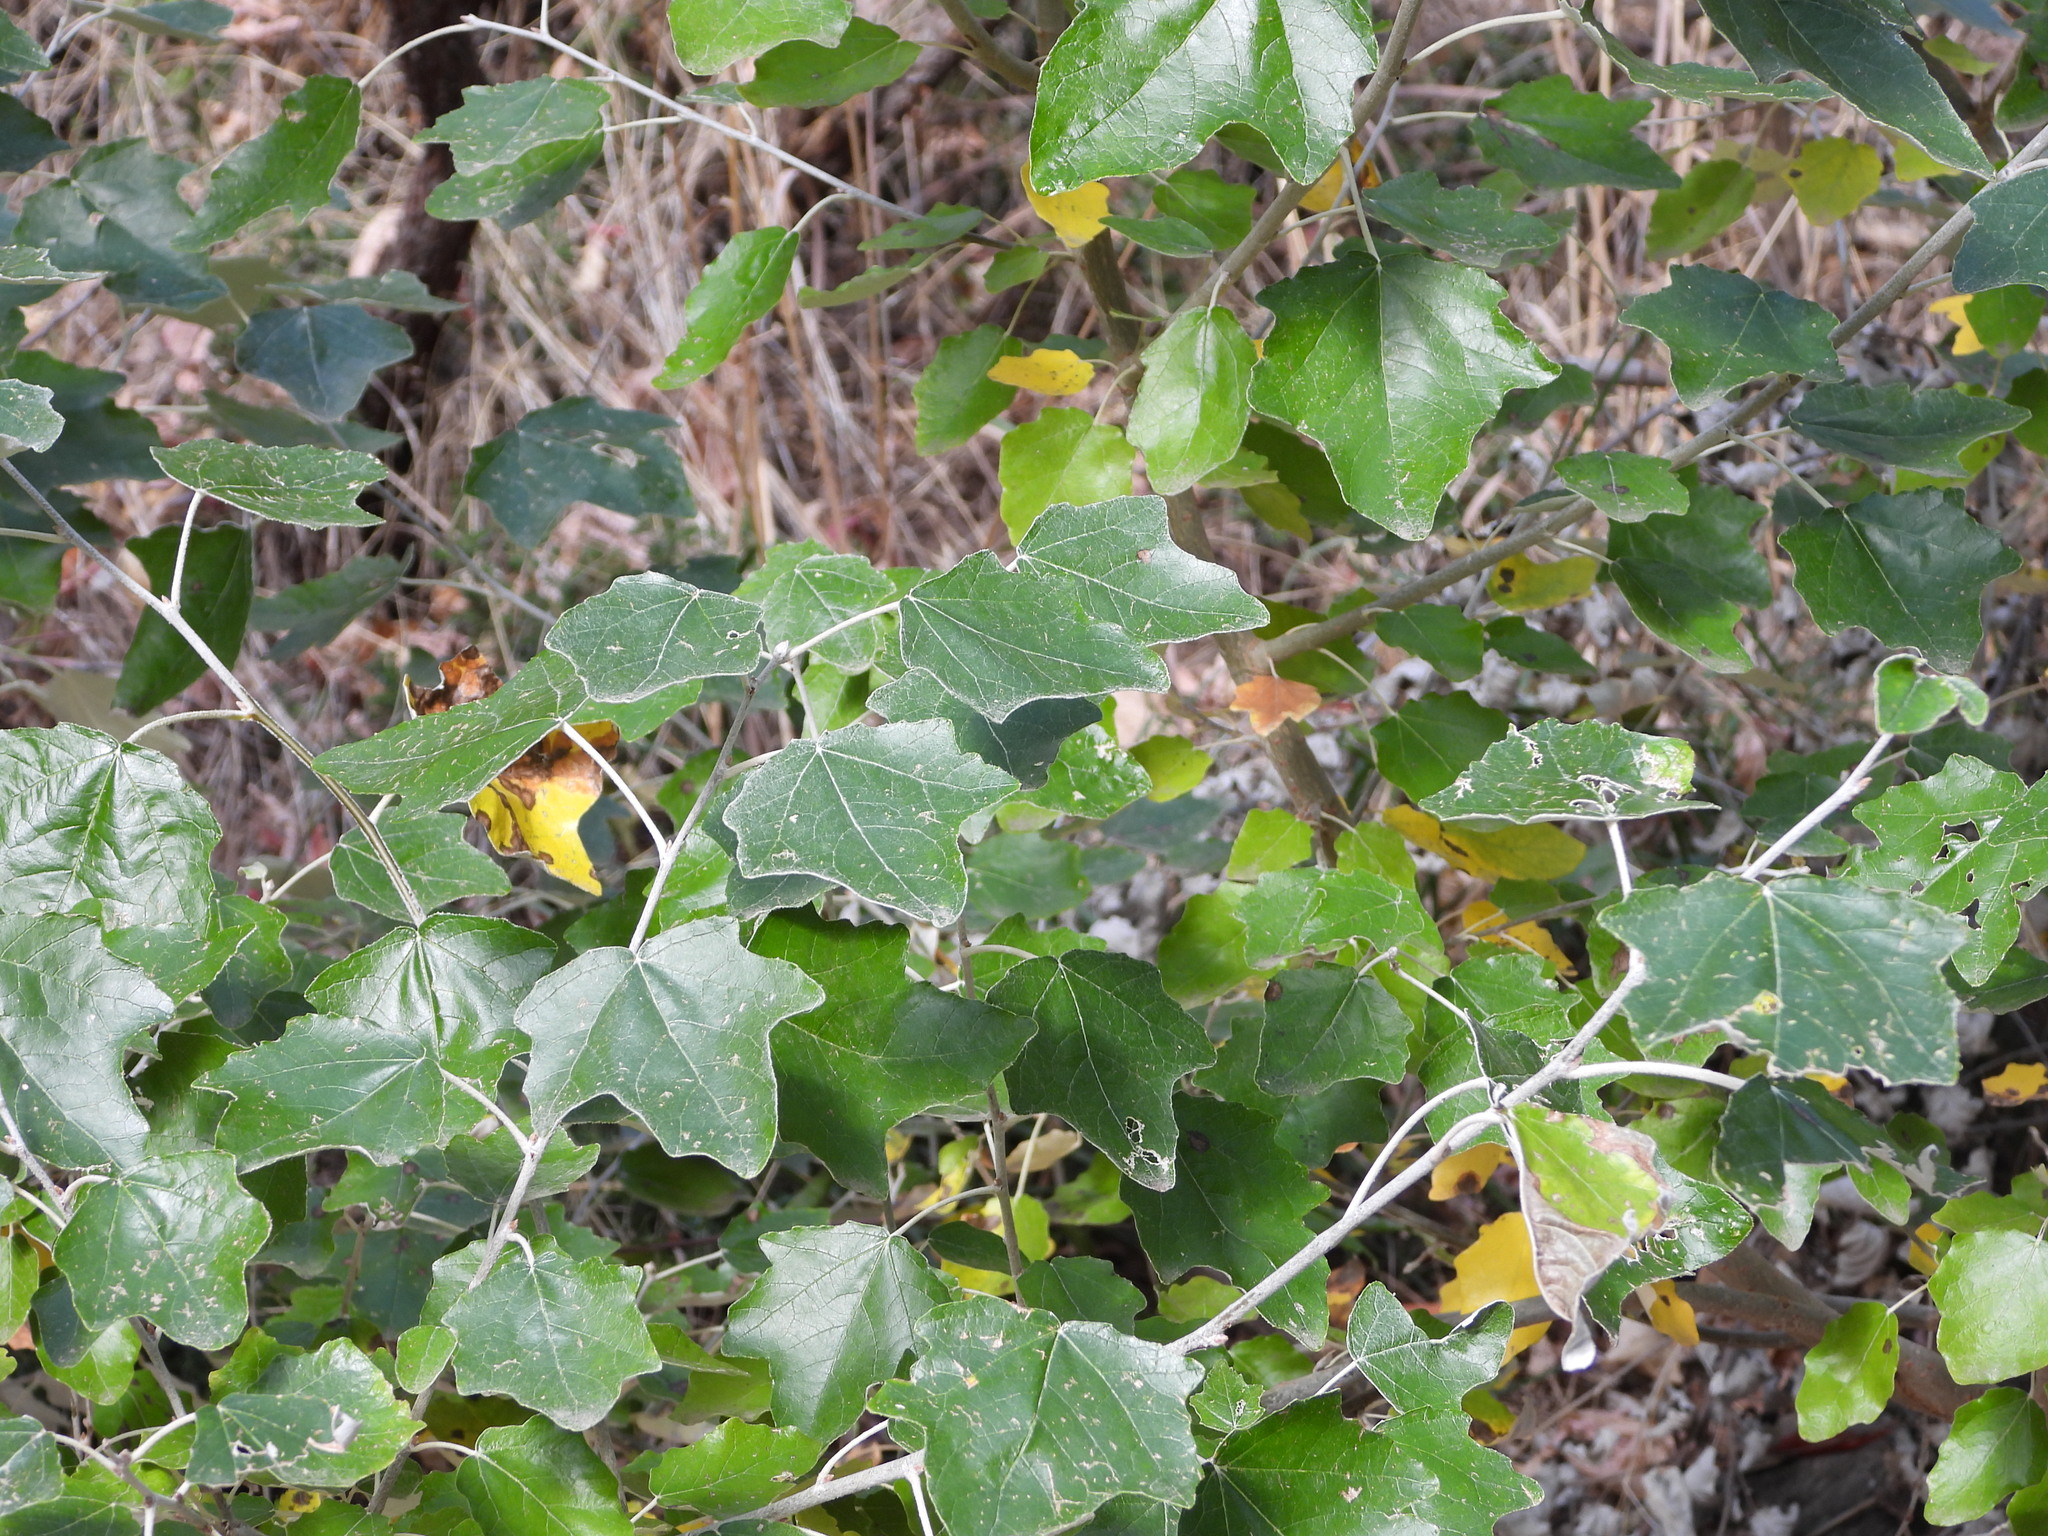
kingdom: Plantae
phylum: Tracheophyta
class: Magnoliopsida
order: Malpighiales
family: Salicaceae
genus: Populus
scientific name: Populus alba
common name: White poplar
